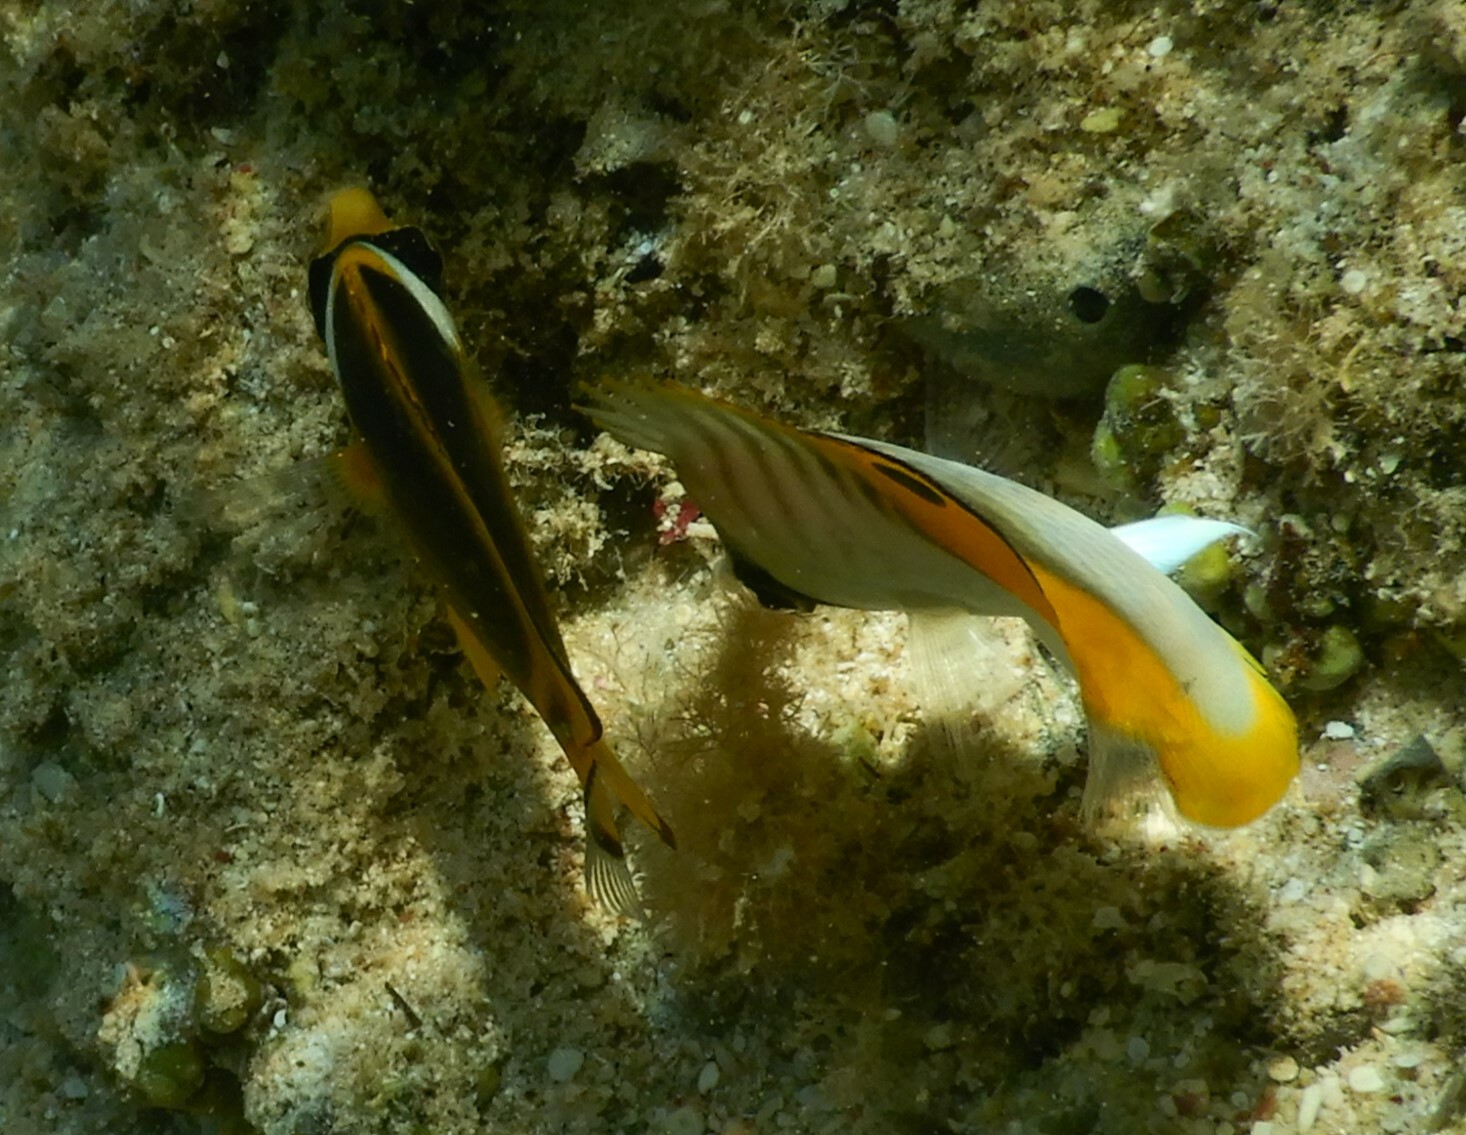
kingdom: Animalia
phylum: Chordata
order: Perciformes
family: Chaetodontidae
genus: Chaetodon
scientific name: Chaetodon auriga
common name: Threadfin butterflyfish
